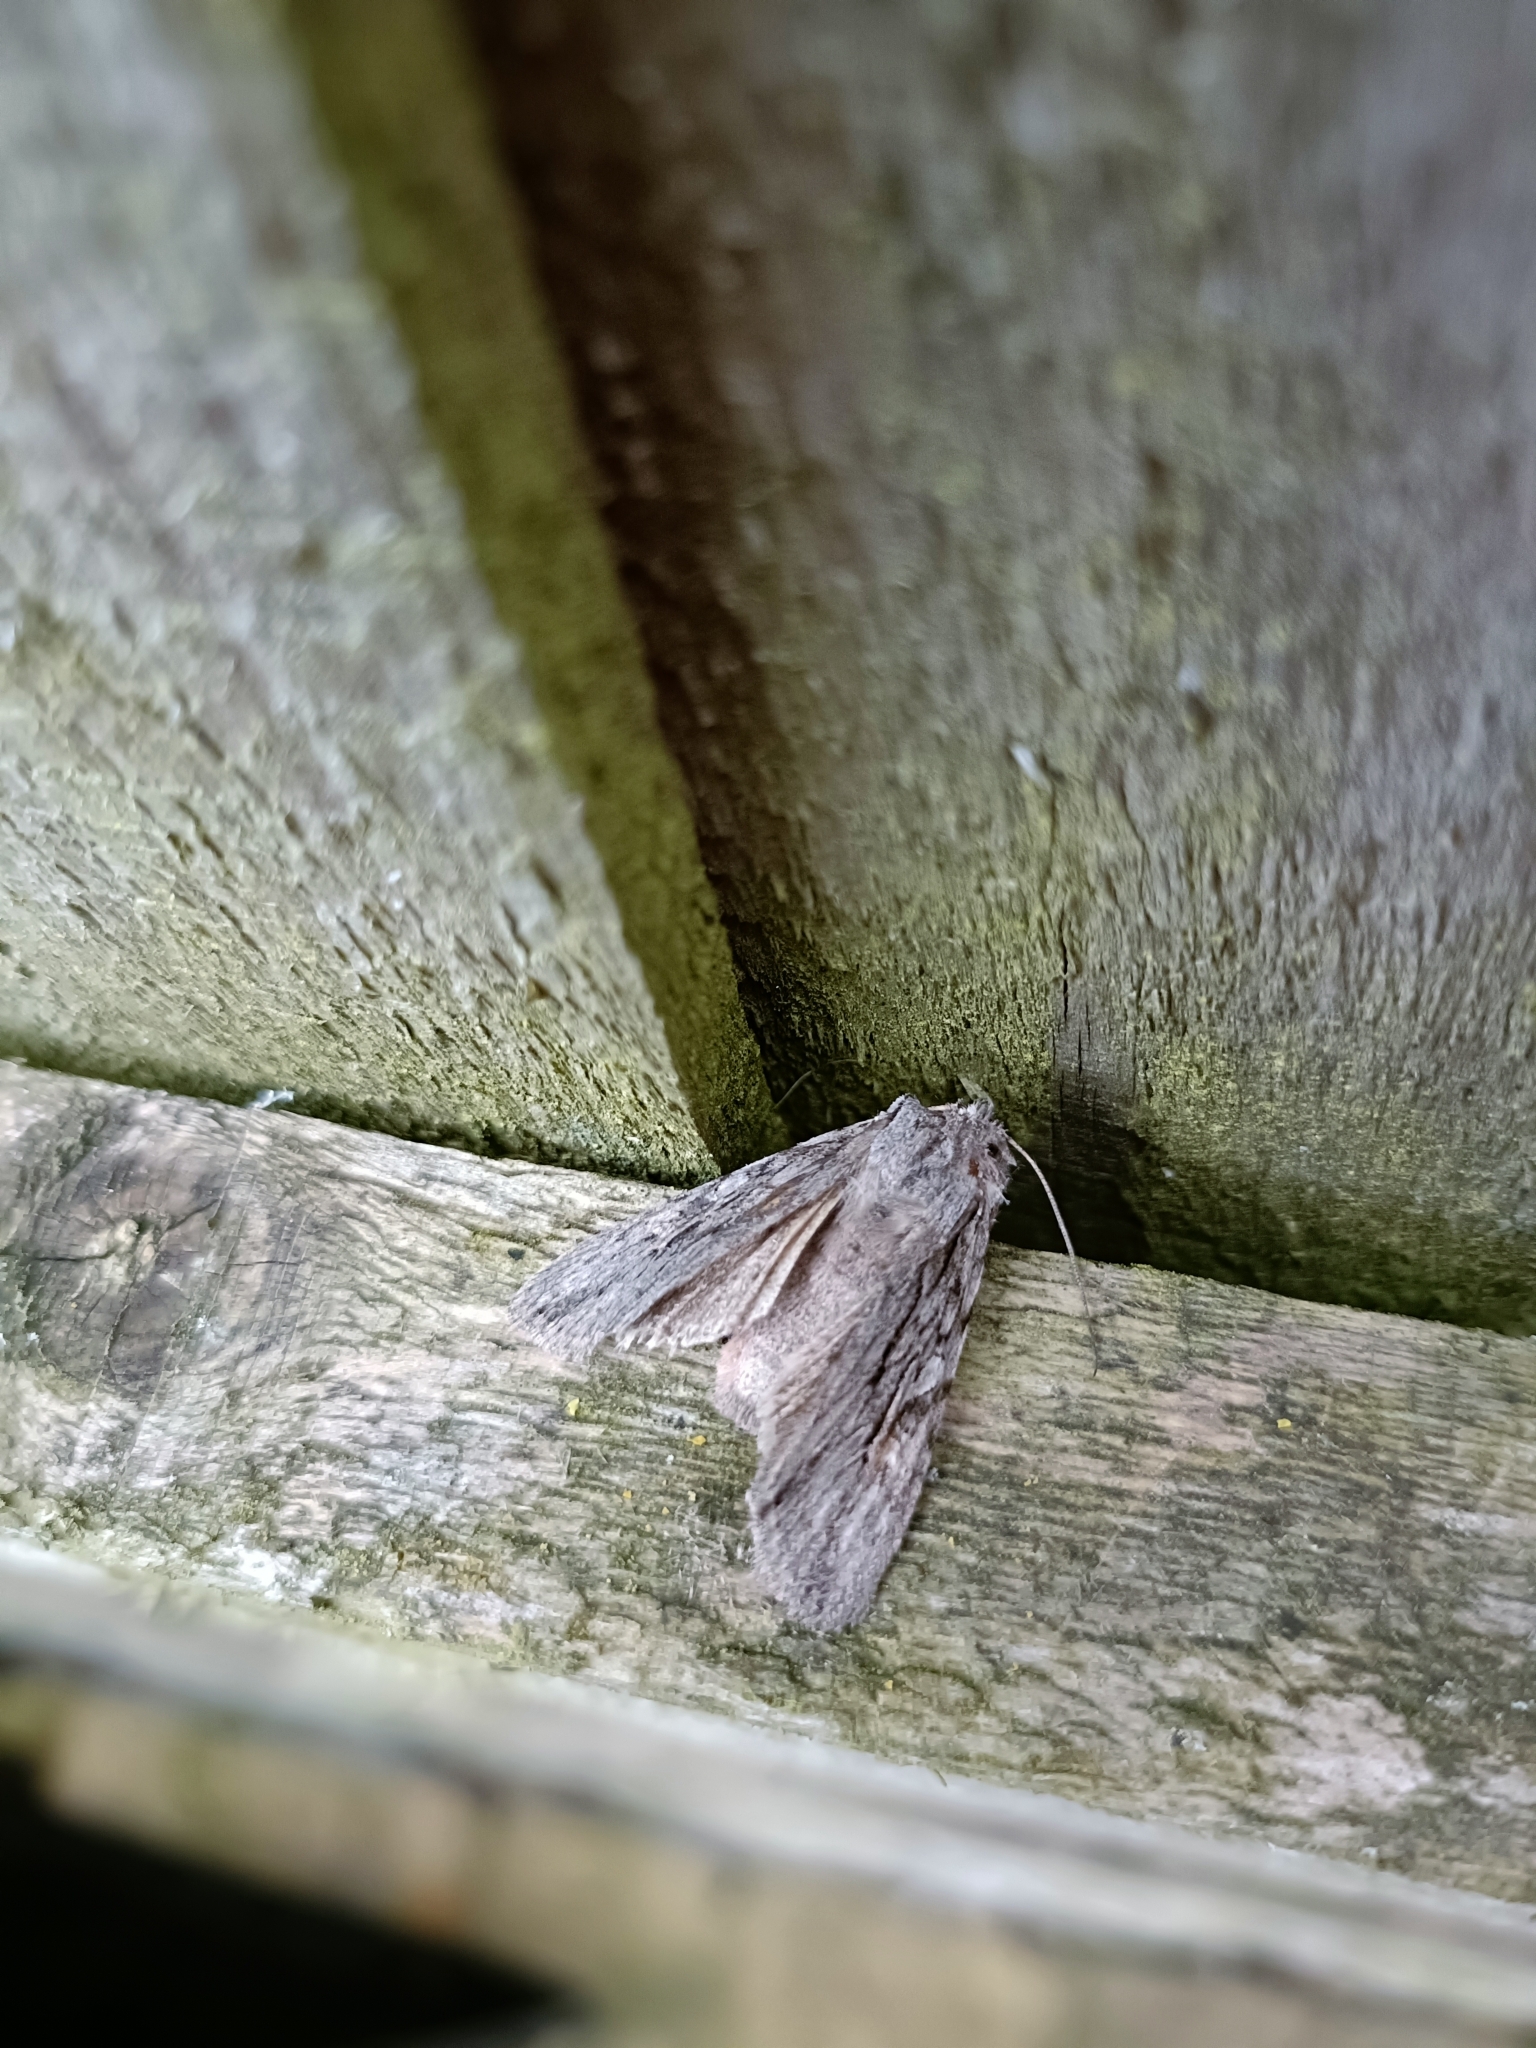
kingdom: Animalia
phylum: Arthropoda
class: Insecta
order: Lepidoptera
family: Noctuidae
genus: Lithophane
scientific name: Lithophane leautieri
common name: Blair's shoulder-knot
